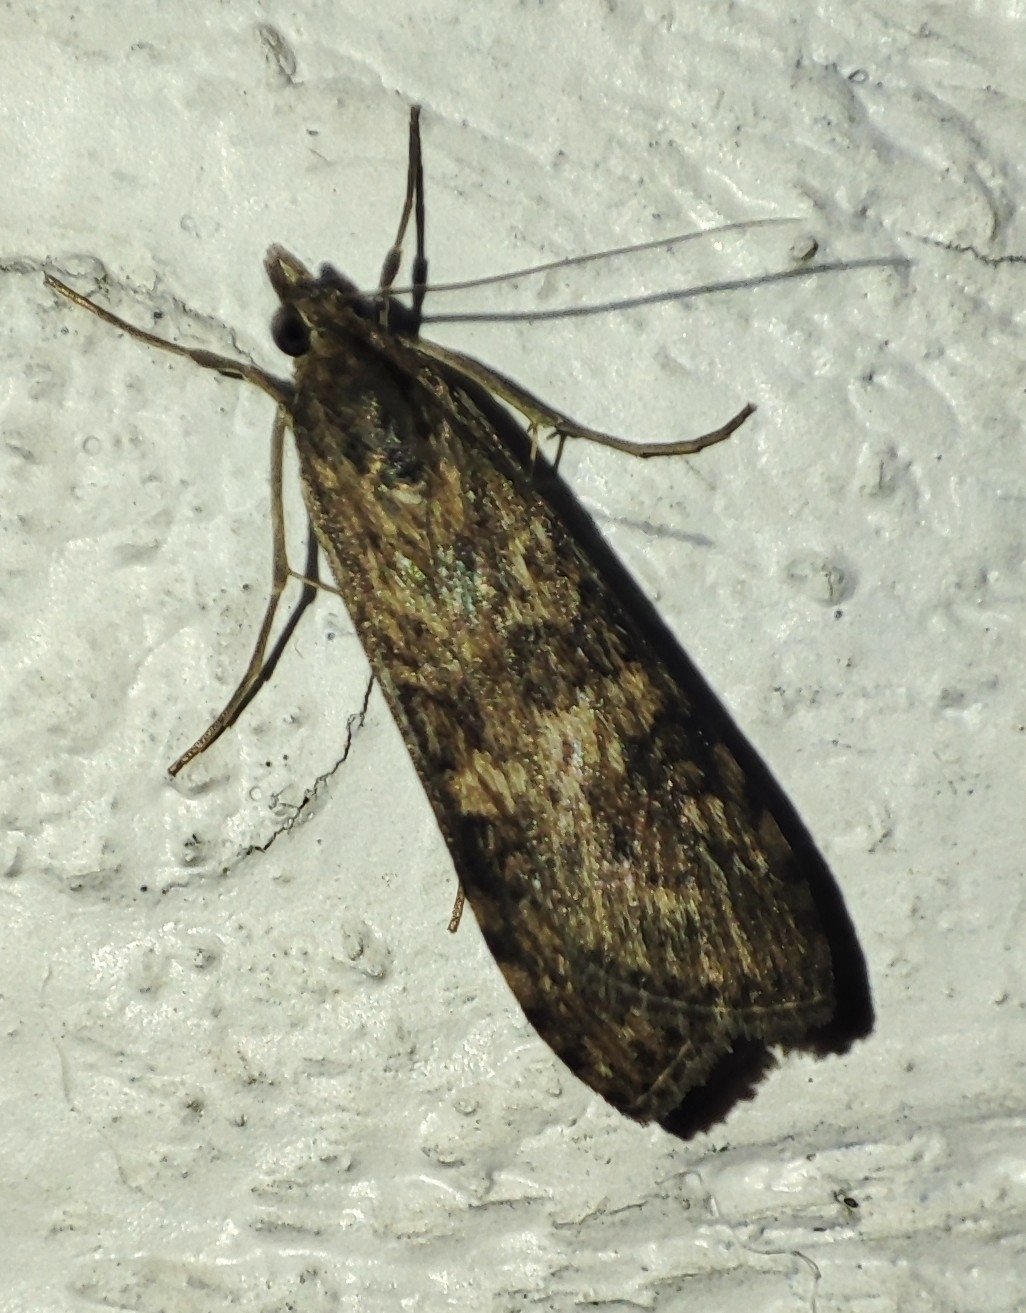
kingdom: Animalia
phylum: Arthropoda
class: Insecta
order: Lepidoptera
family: Crambidae
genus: Nomophila
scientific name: Nomophila noctuella
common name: Rush veneer
